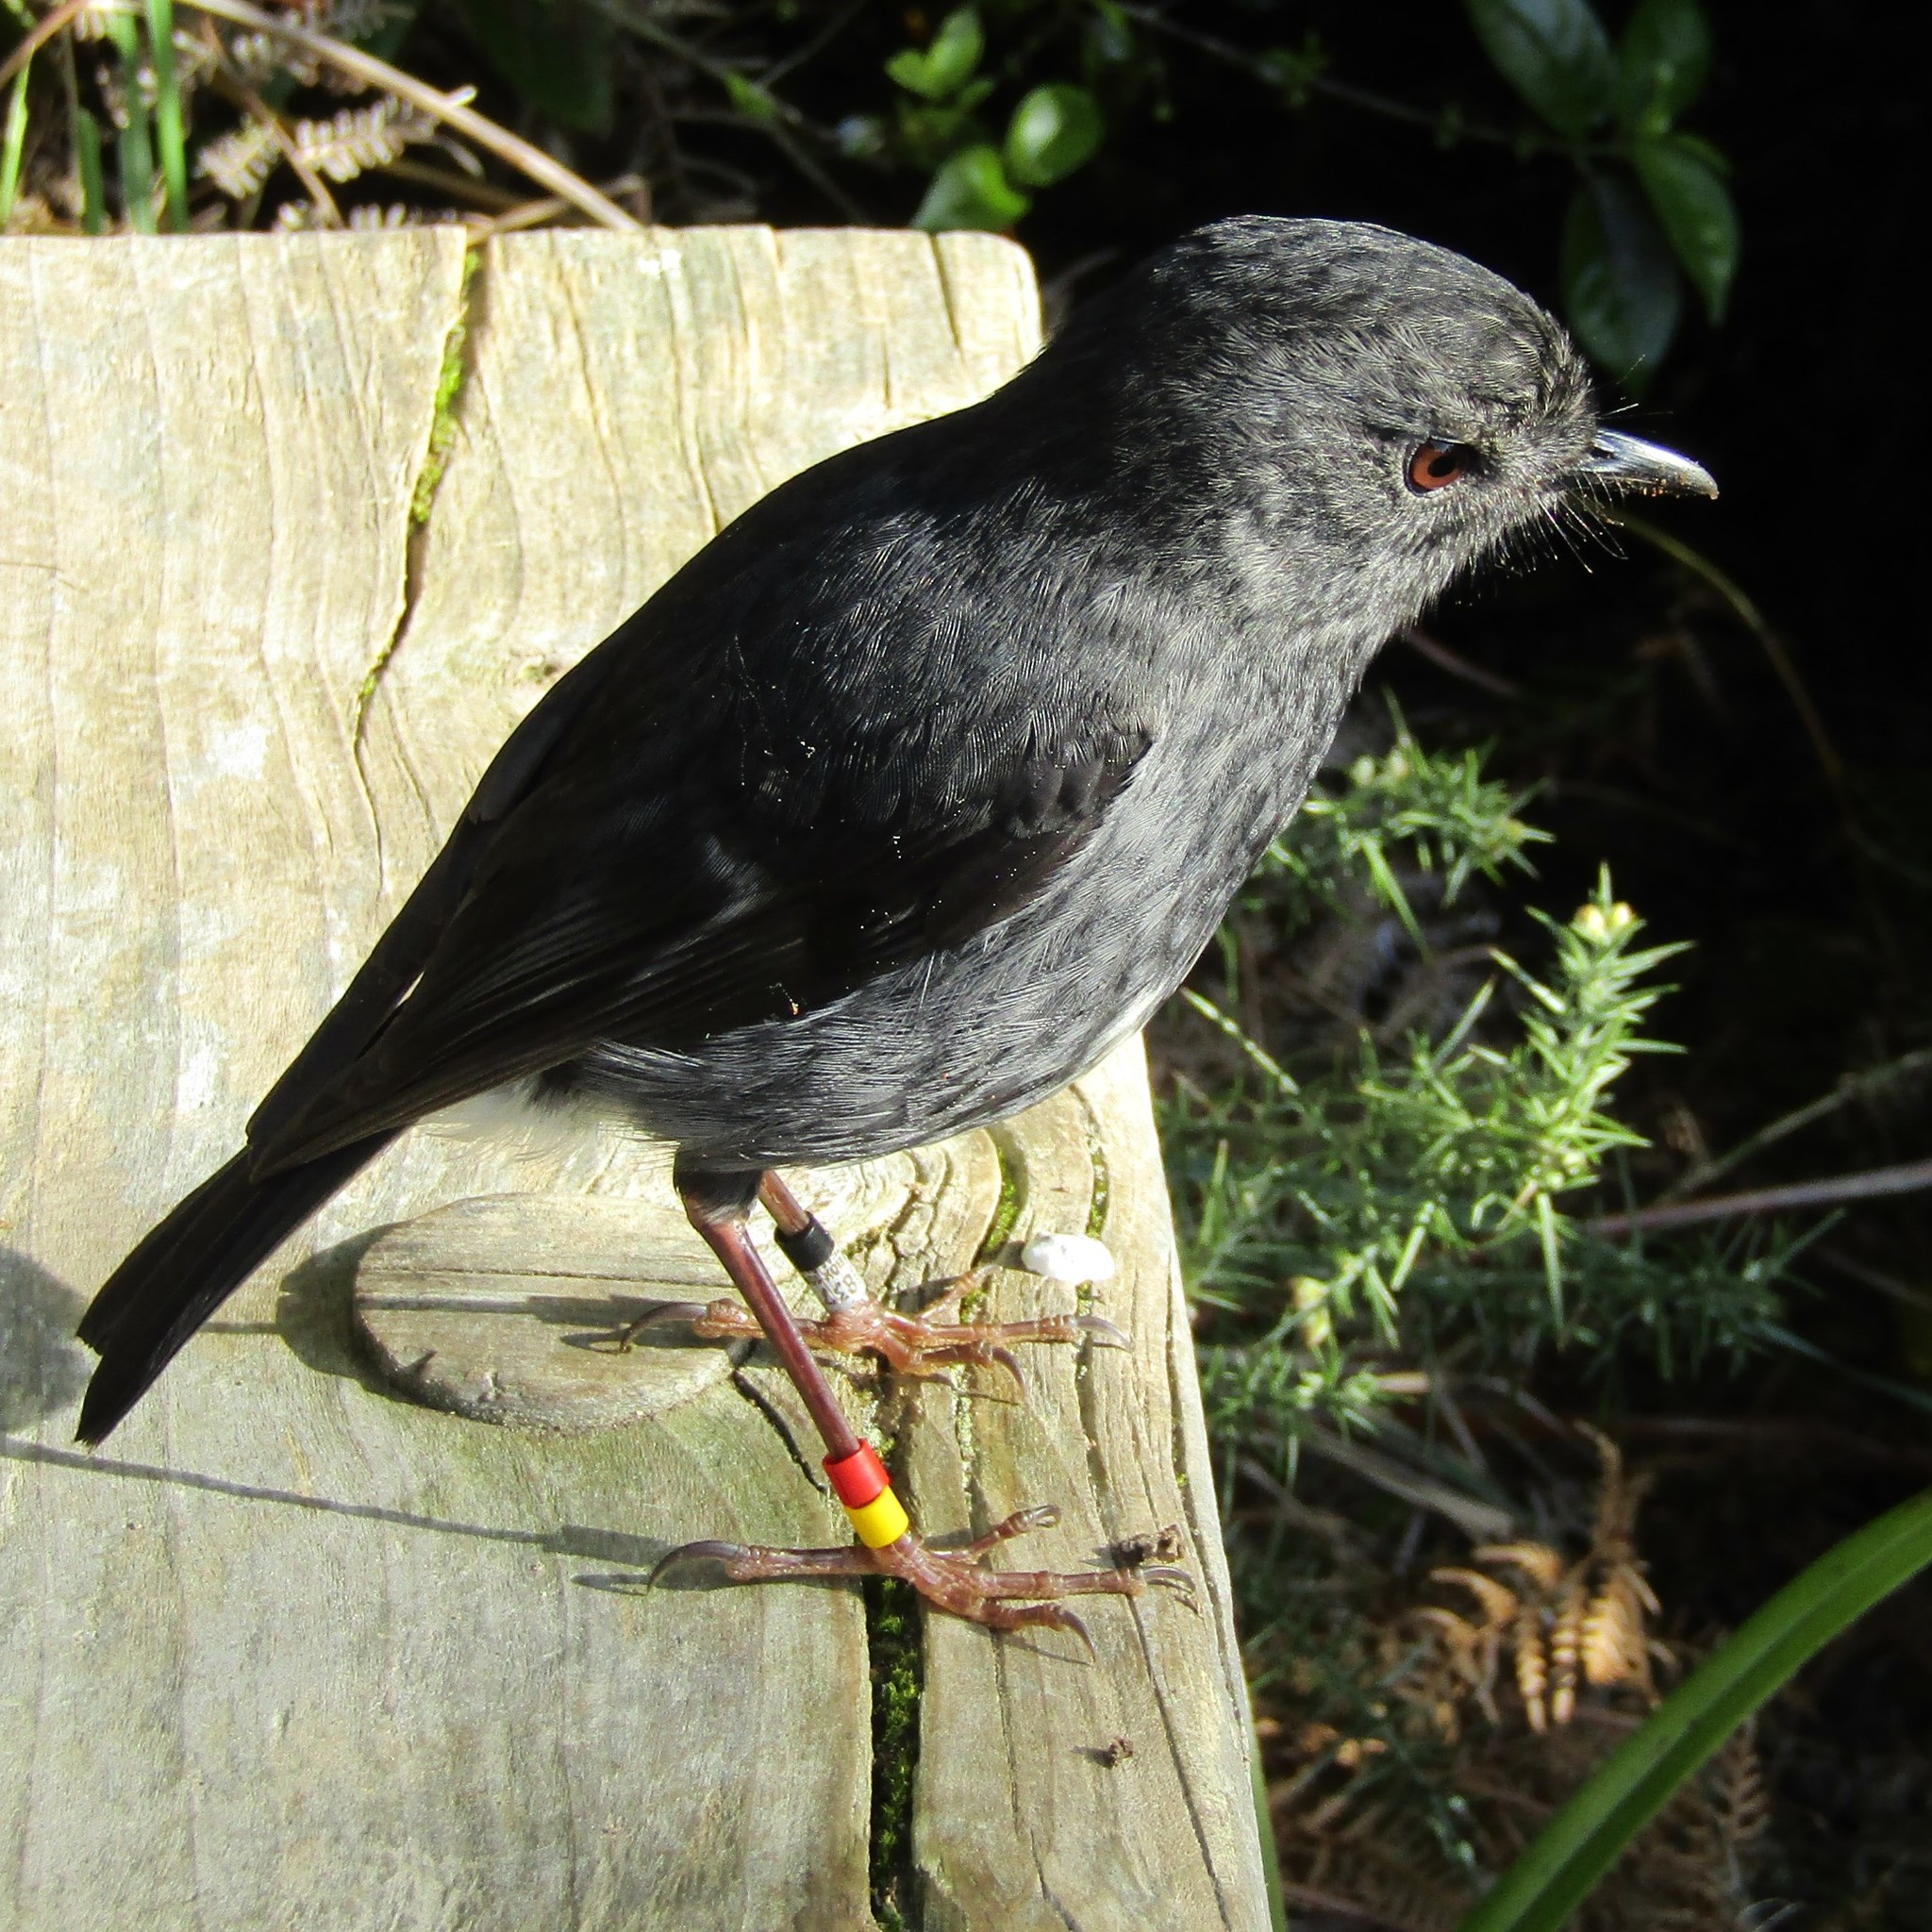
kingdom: Animalia
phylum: Chordata
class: Aves
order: Passeriformes
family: Petroicidae
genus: Petroica
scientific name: Petroica australis
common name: New zealand robin
